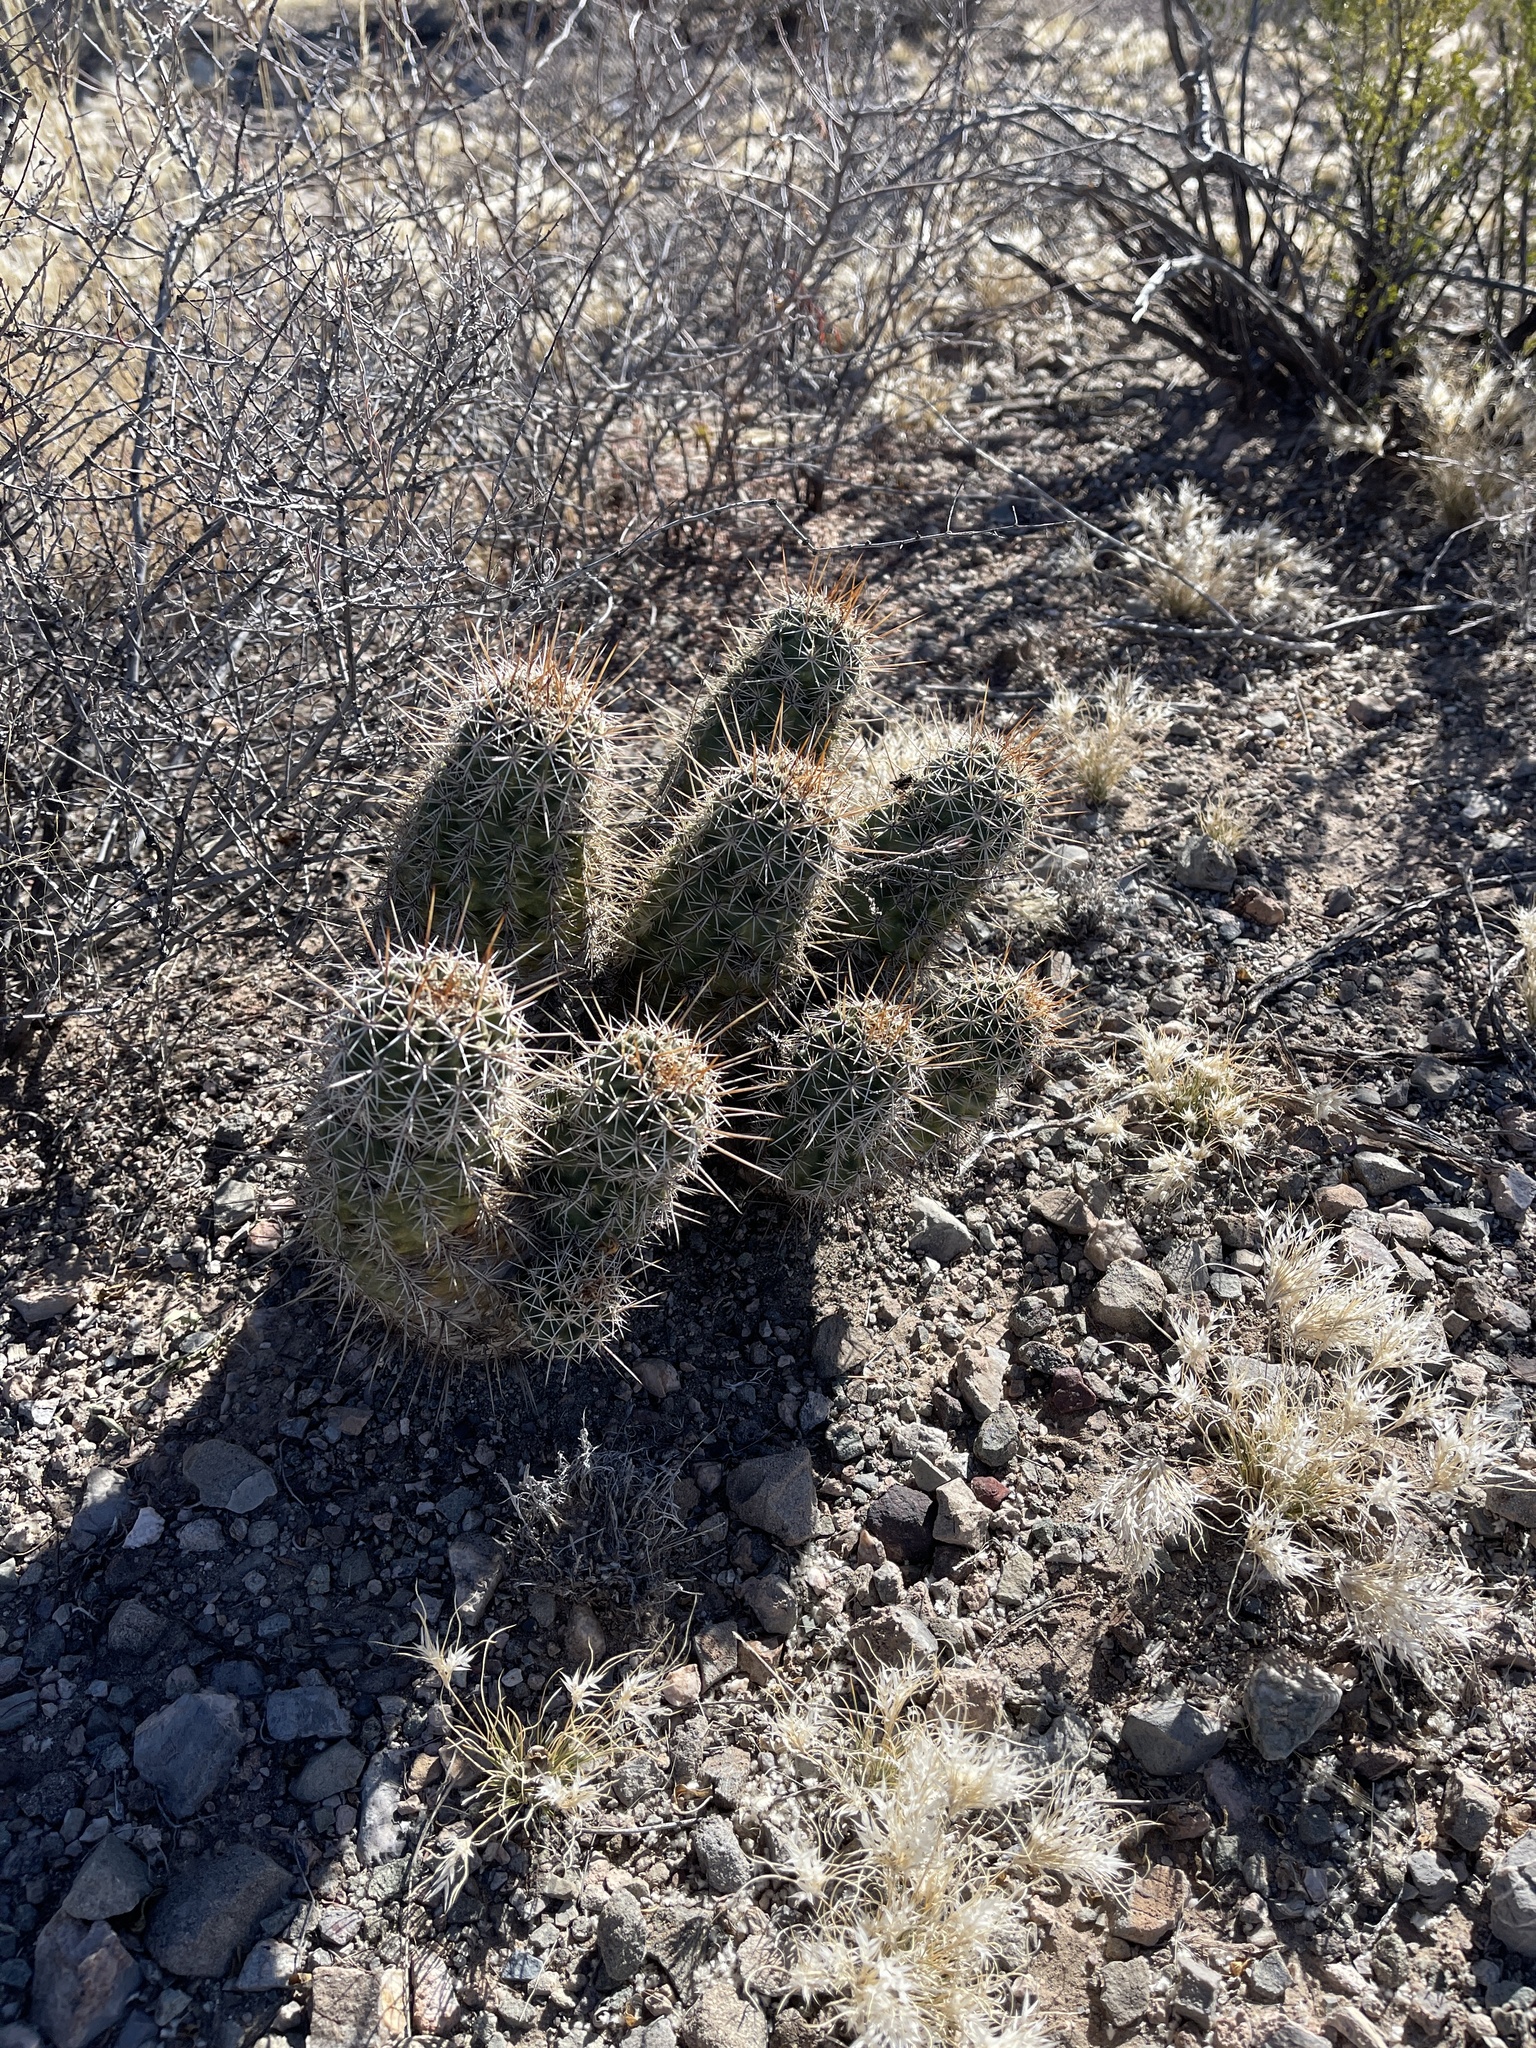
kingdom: Plantae
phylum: Tracheophyta
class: Magnoliopsida
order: Caryophyllales
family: Cactaceae
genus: Echinocereus
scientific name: Echinocereus fasciculatus
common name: Bundle hedgehog
